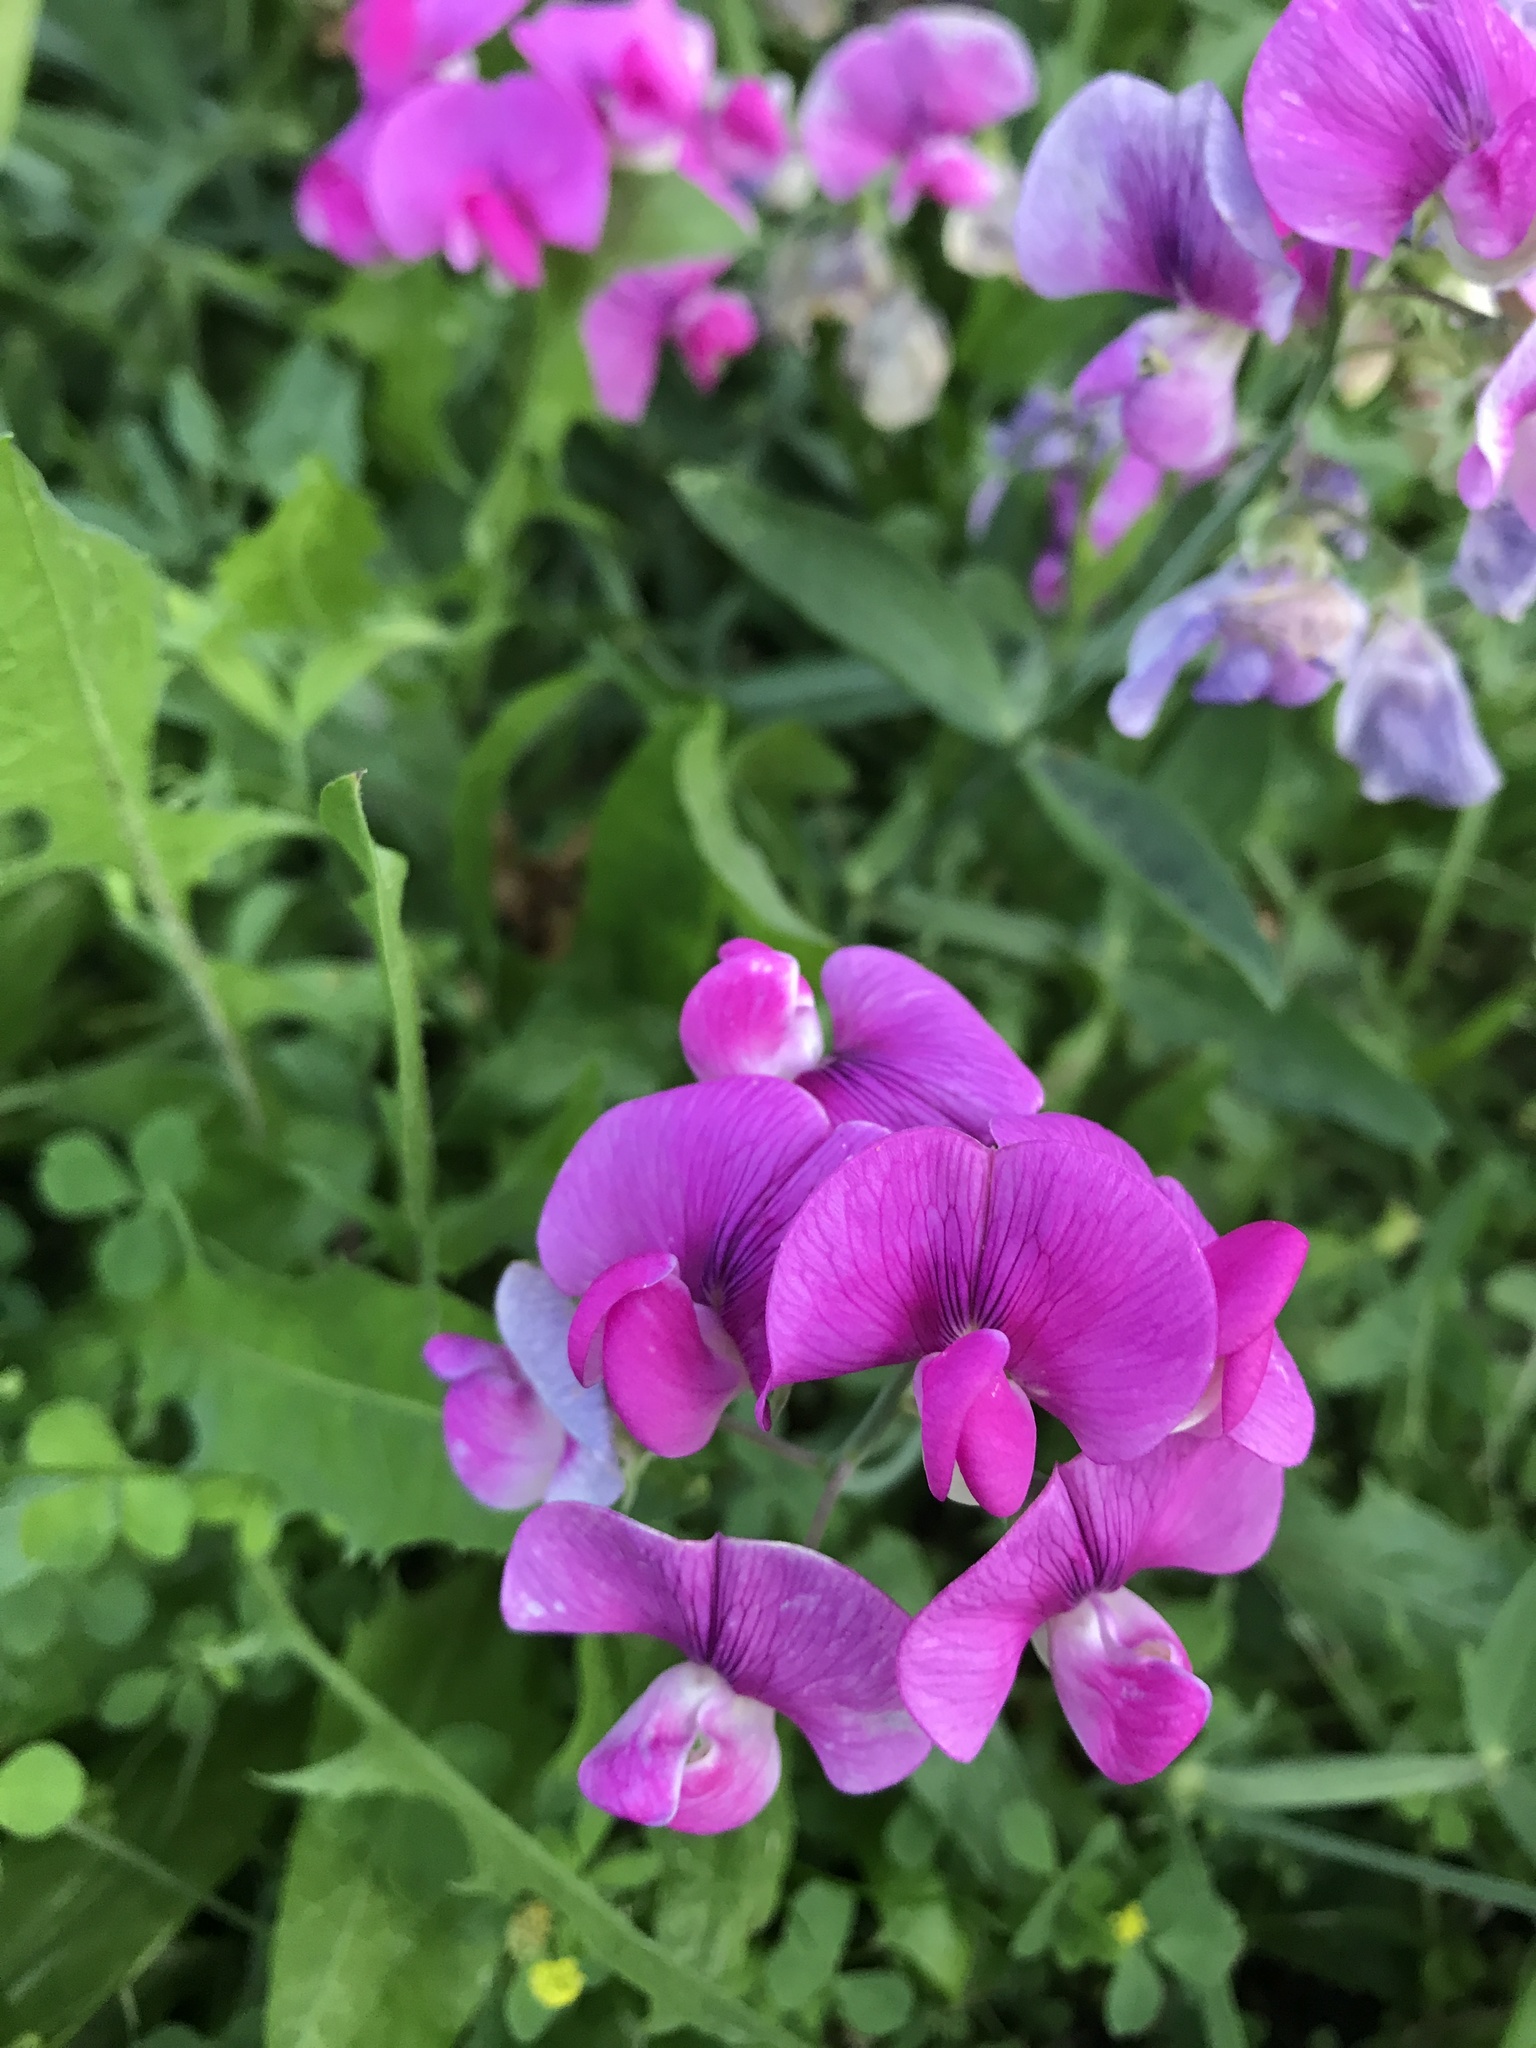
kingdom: Plantae
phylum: Tracheophyta
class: Magnoliopsida
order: Fabales
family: Fabaceae
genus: Lathyrus
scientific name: Lathyrus latifolius
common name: Perennial pea
